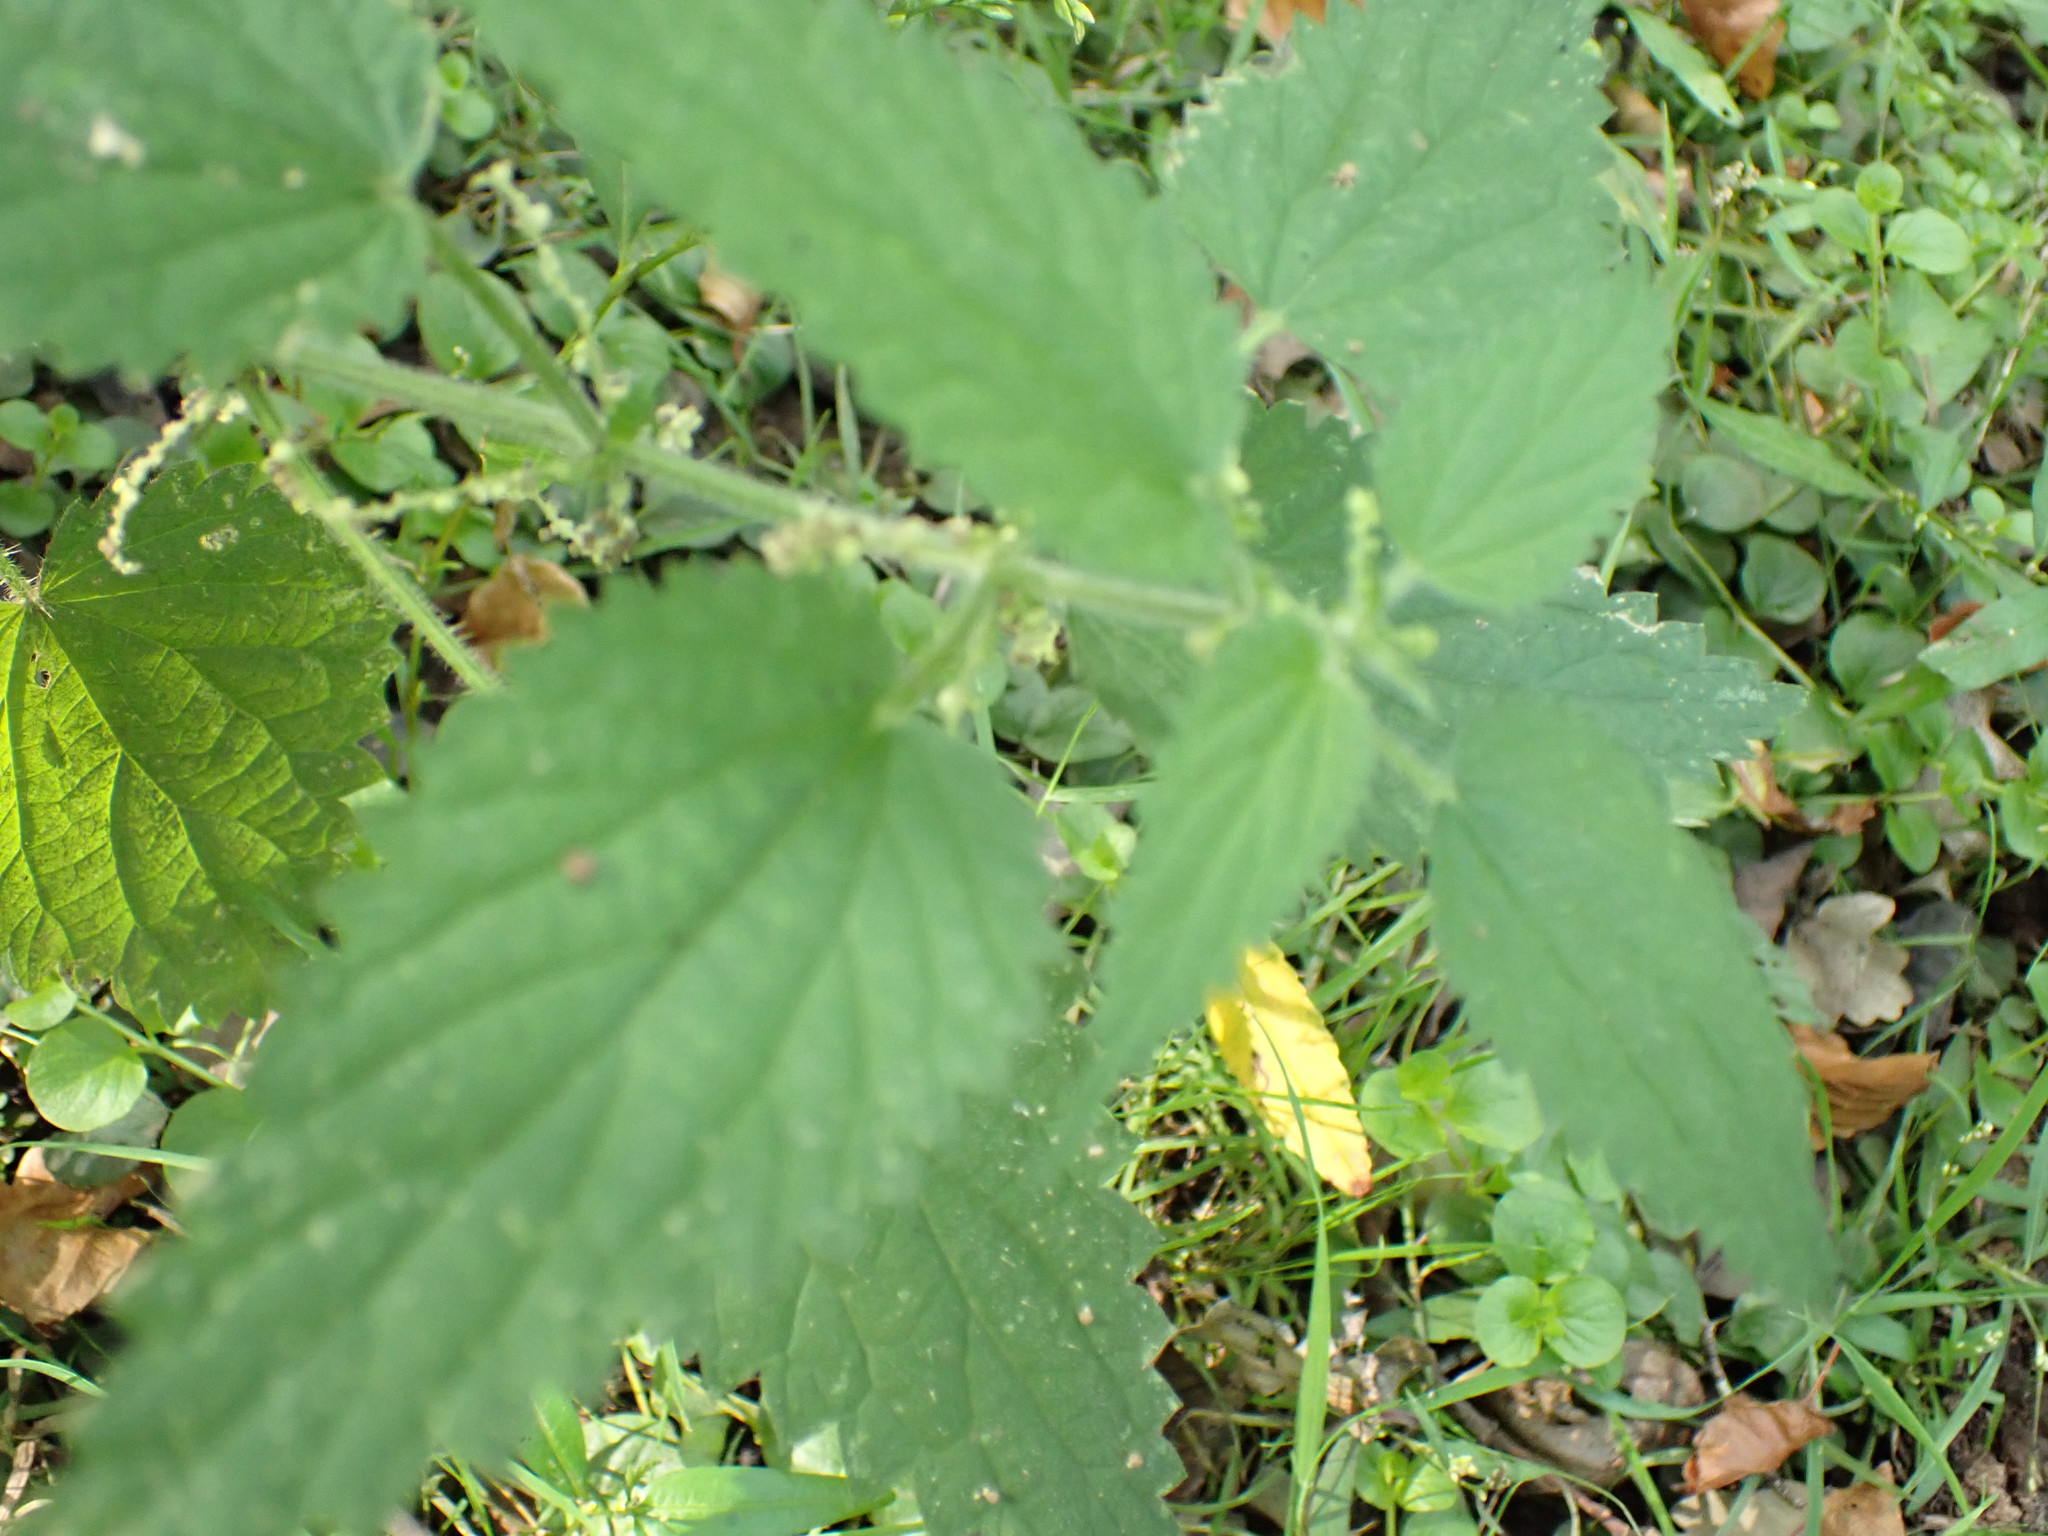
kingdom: Plantae
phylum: Tracheophyta
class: Magnoliopsida
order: Rosales
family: Urticaceae
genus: Urtica
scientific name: Urtica dioica
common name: Common nettle
